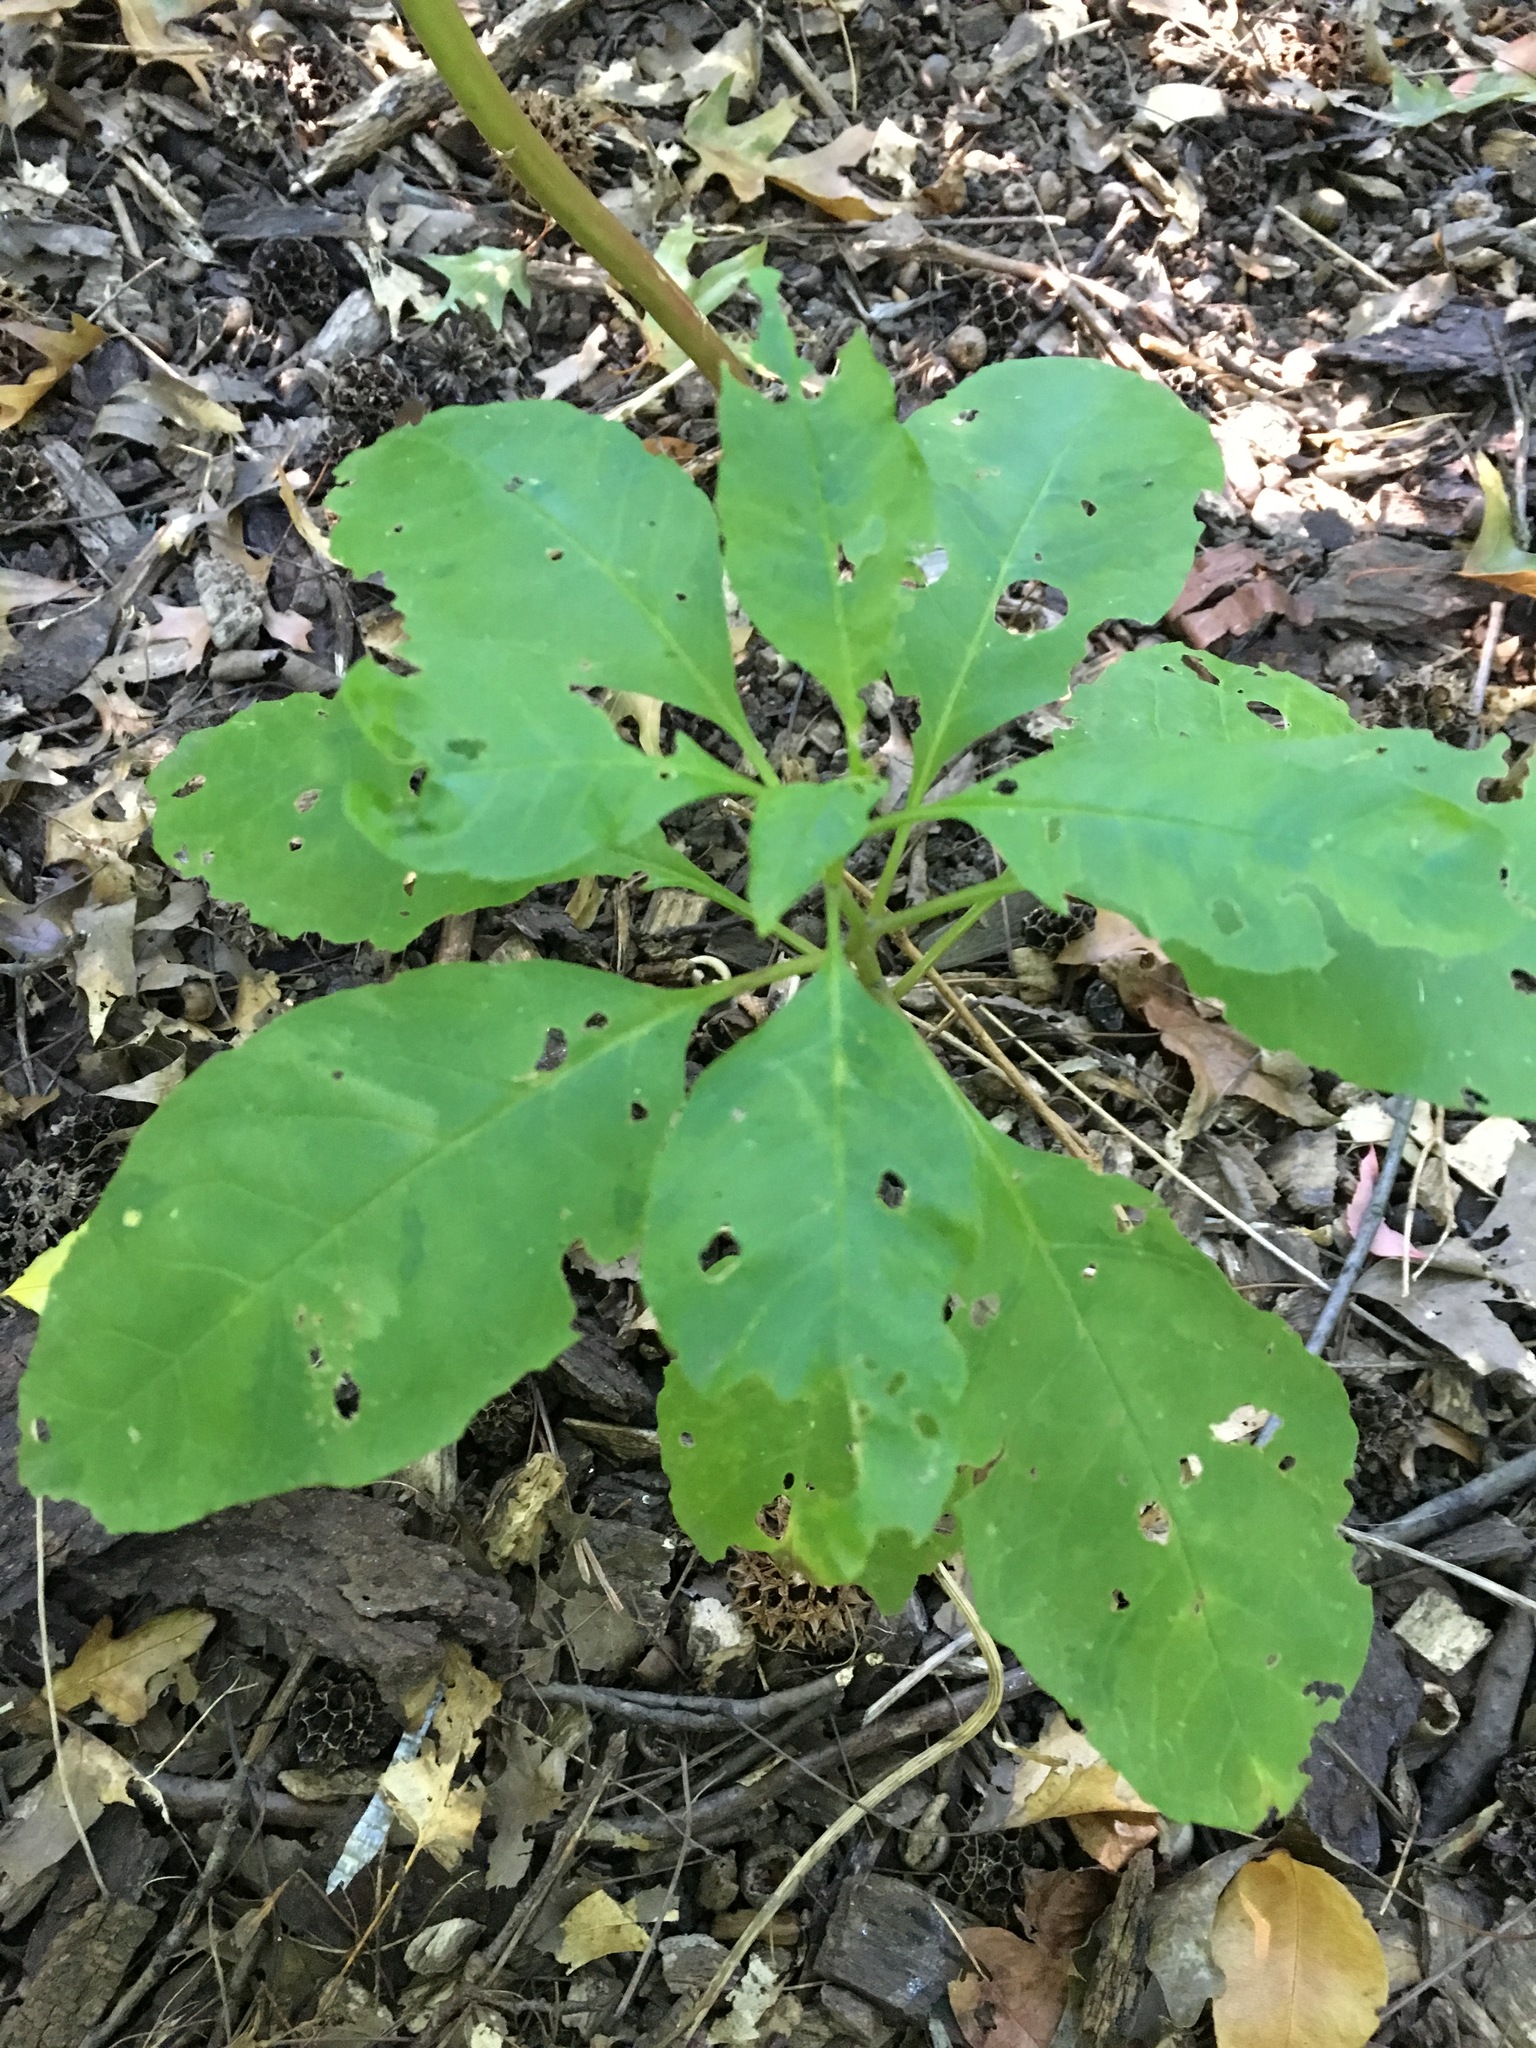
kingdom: Plantae
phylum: Tracheophyta
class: Magnoliopsida
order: Caryophyllales
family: Phytolaccaceae
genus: Phytolacca
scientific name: Phytolacca americana
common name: American pokeweed
